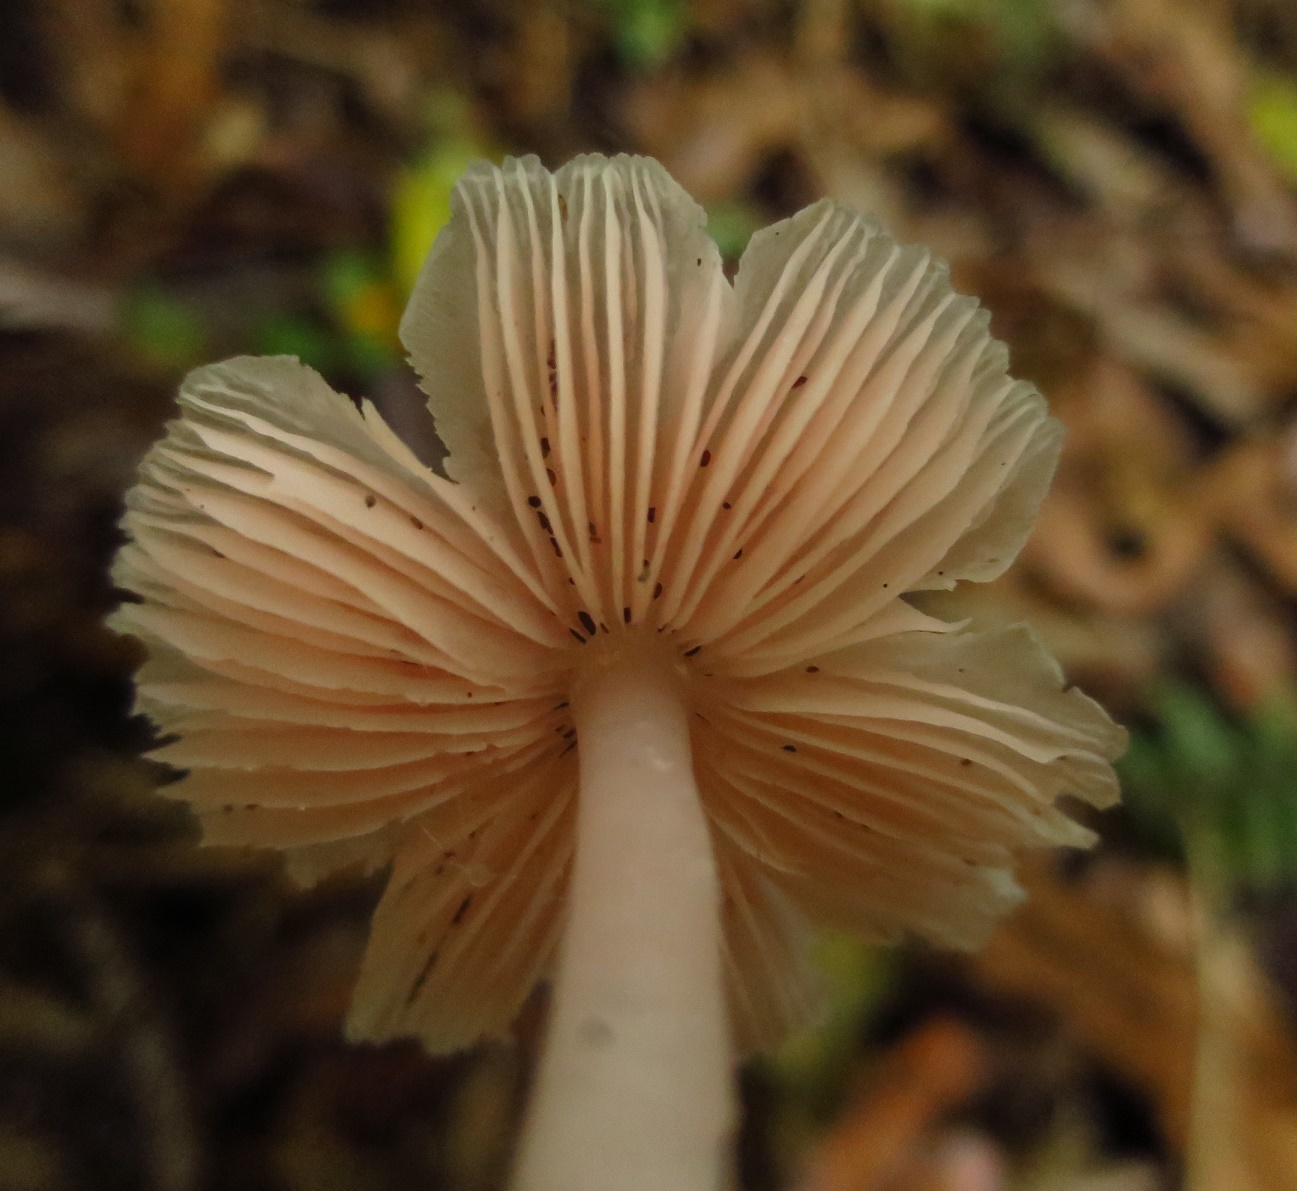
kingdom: Fungi
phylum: Basidiomycota
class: Agaricomycetes
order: Agaricales
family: Hygrophoraceae
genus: Humidicutis
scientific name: Humidicutis
